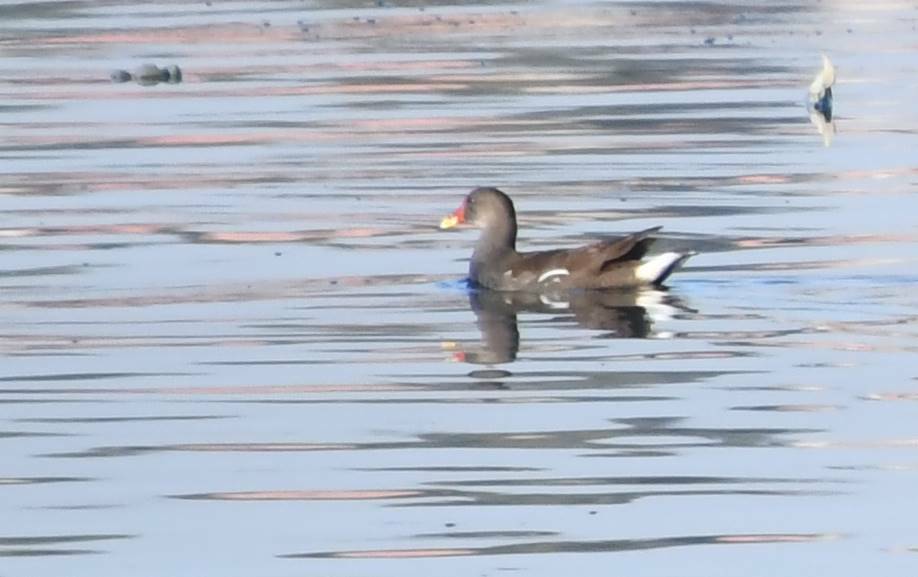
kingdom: Animalia
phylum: Chordata
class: Aves
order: Gruiformes
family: Rallidae
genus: Gallinula
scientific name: Gallinula chloropus
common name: Common moorhen
